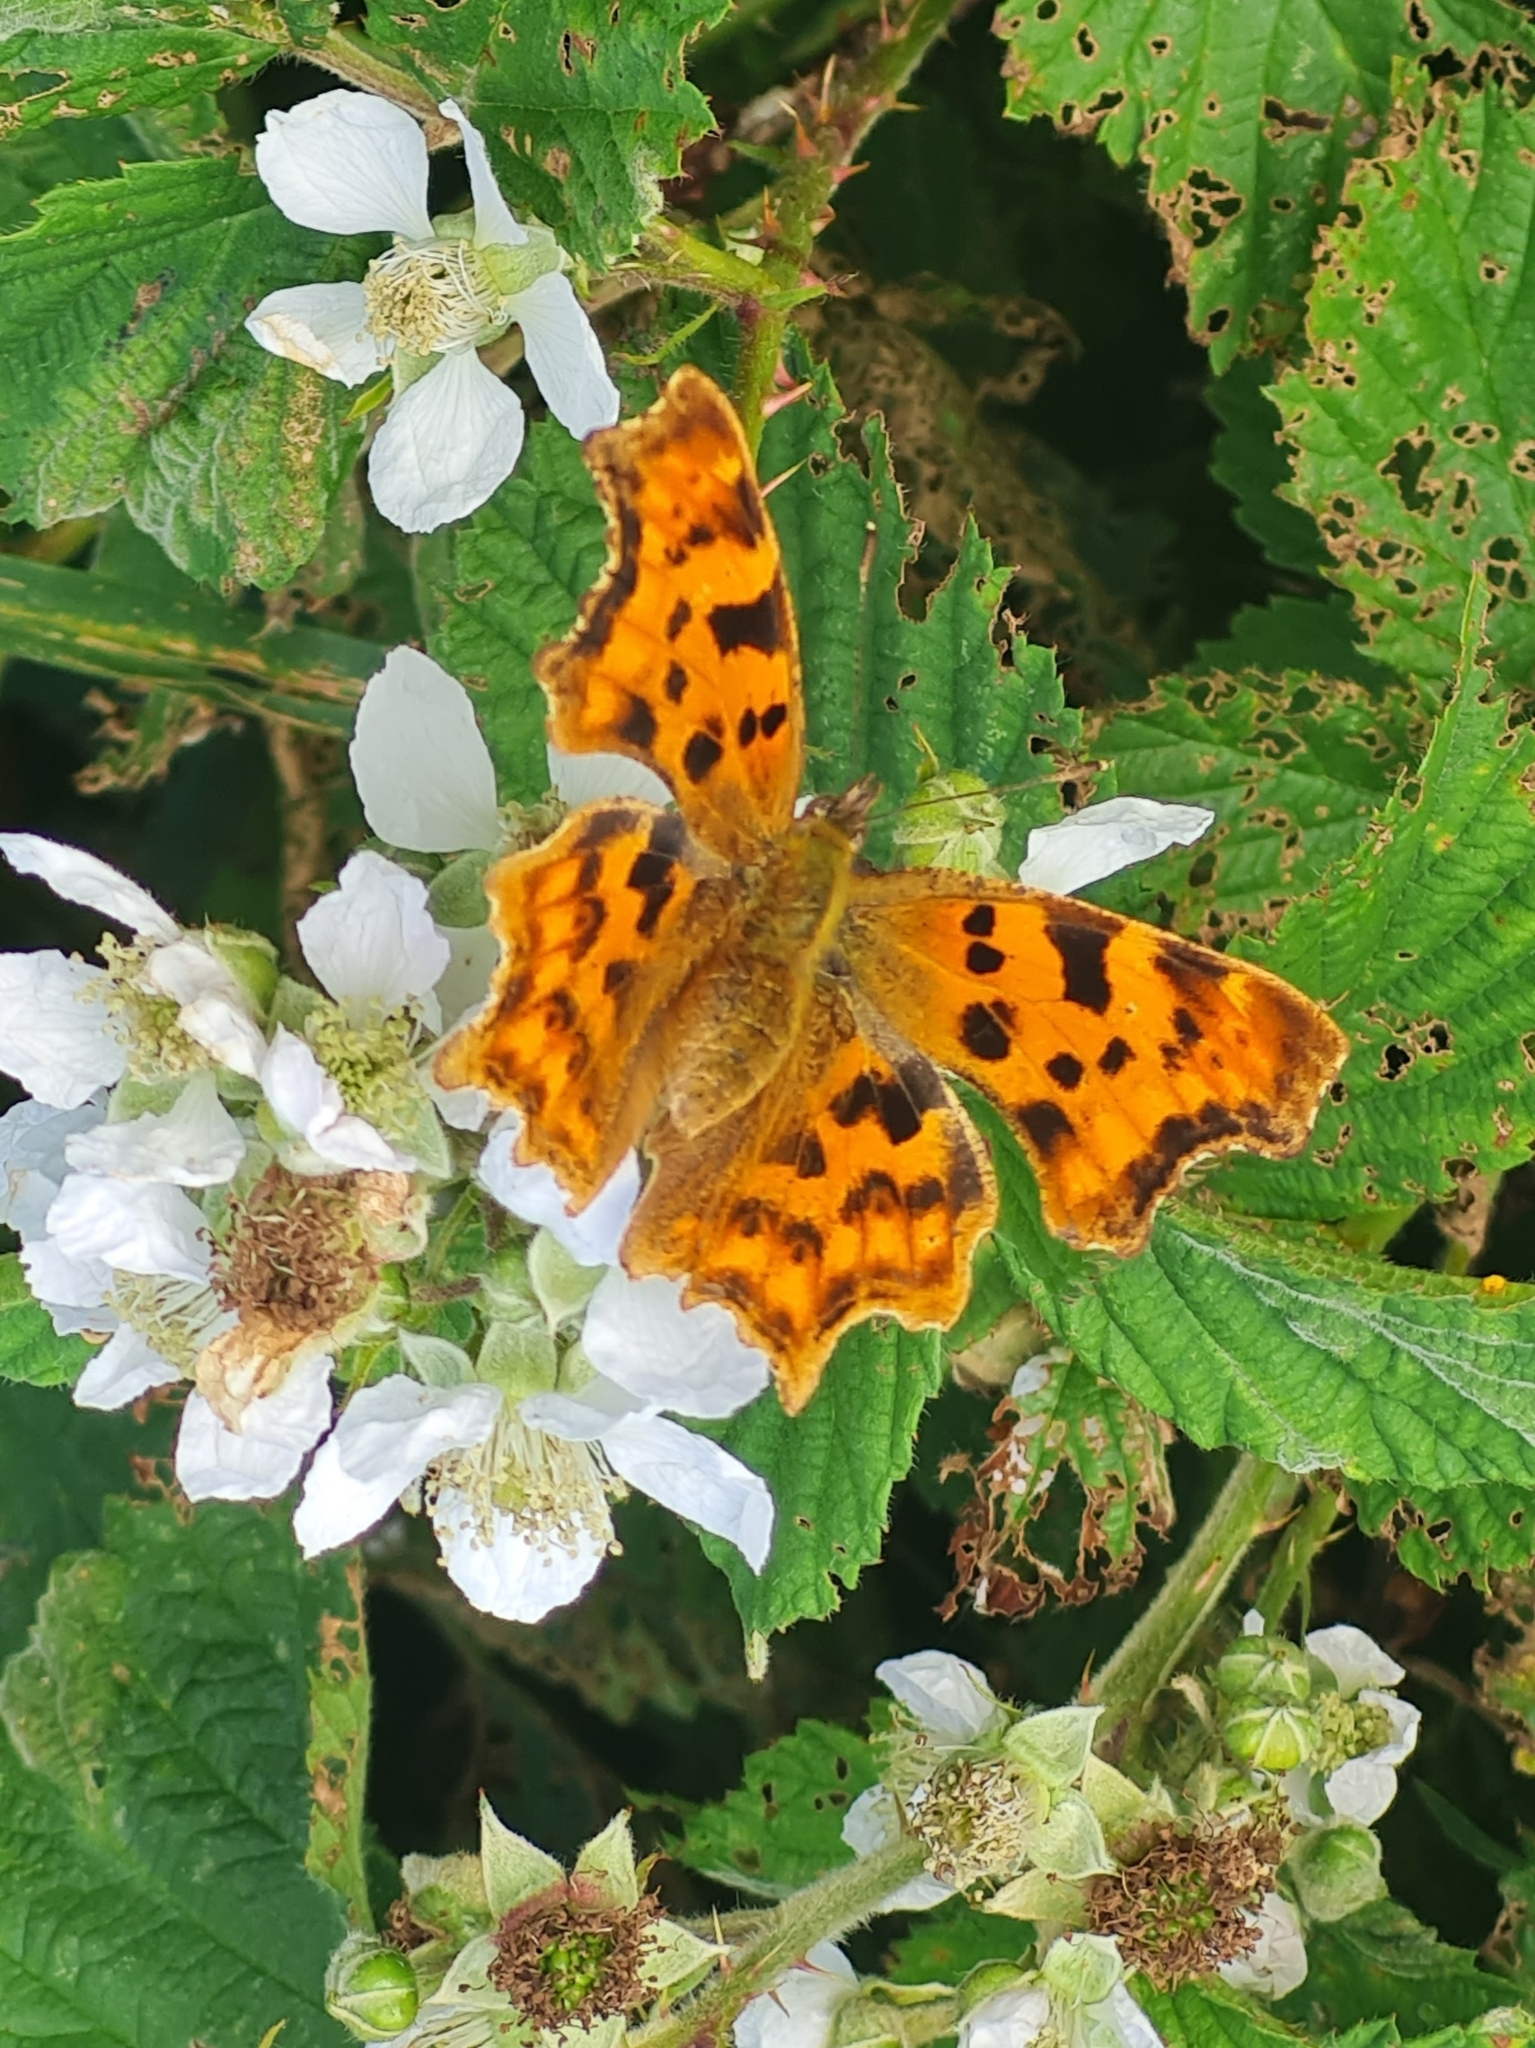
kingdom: Animalia
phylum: Arthropoda
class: Insecta
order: Lepidoptera
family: Nymphalidae
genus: Polygonia
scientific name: Polygonia c-album
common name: Comma
